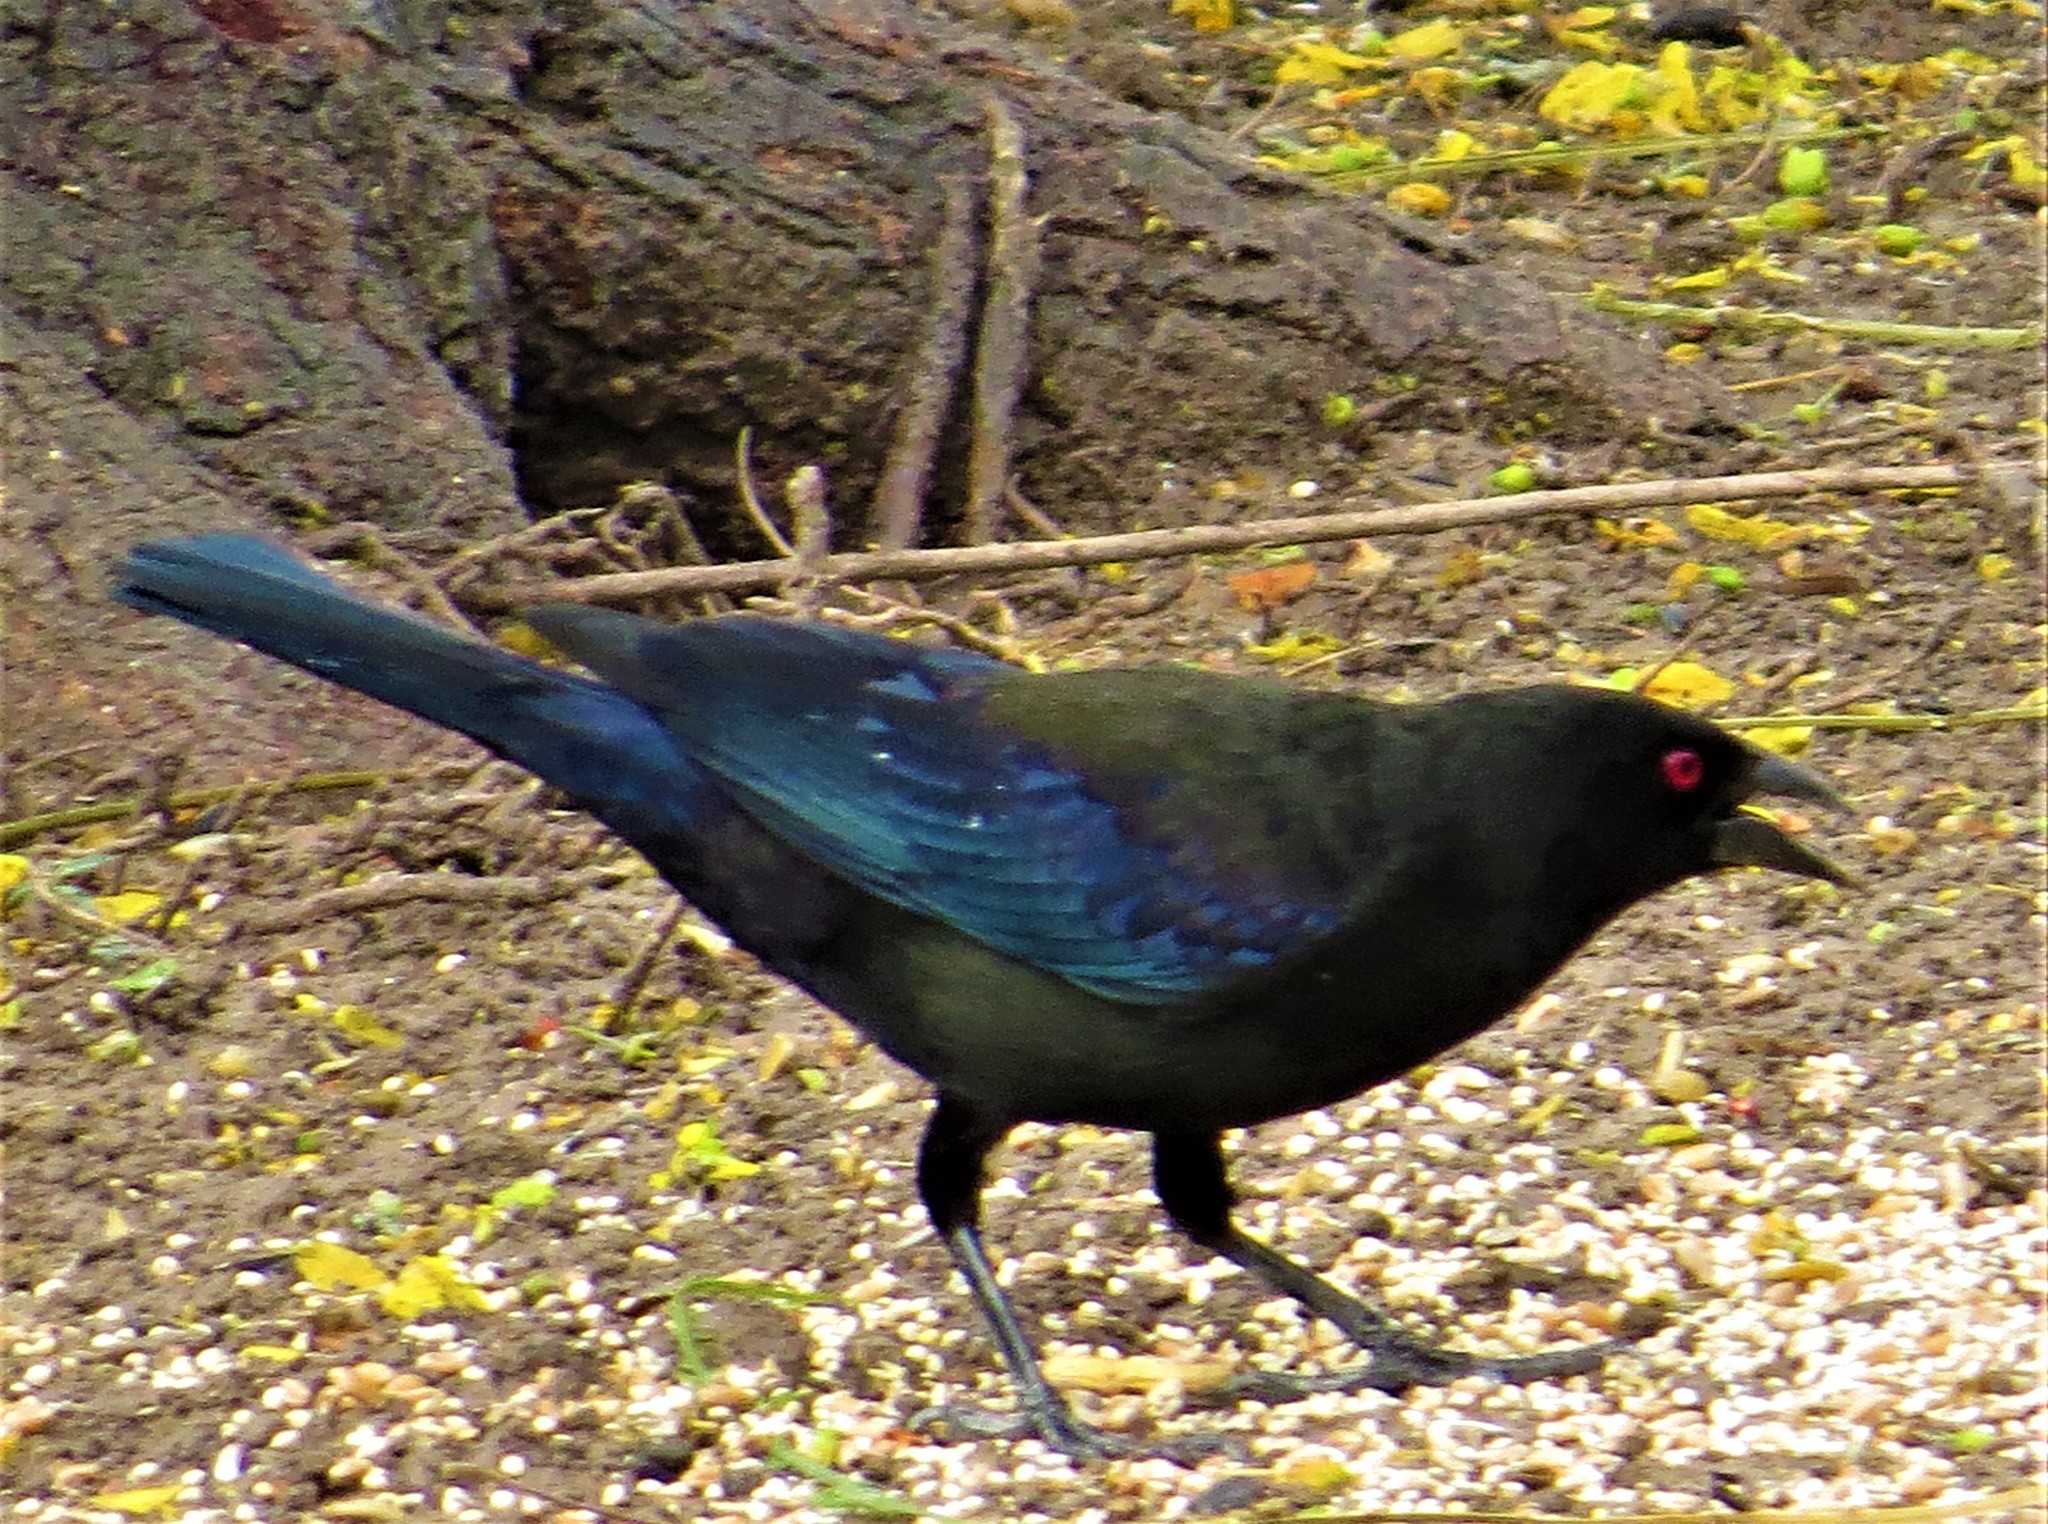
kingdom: Animalia
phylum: Chordata
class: Aves
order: Passeriformes
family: Icteridae
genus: Molothrus
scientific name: Molothrus aeneus
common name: Bronzed cowbird
